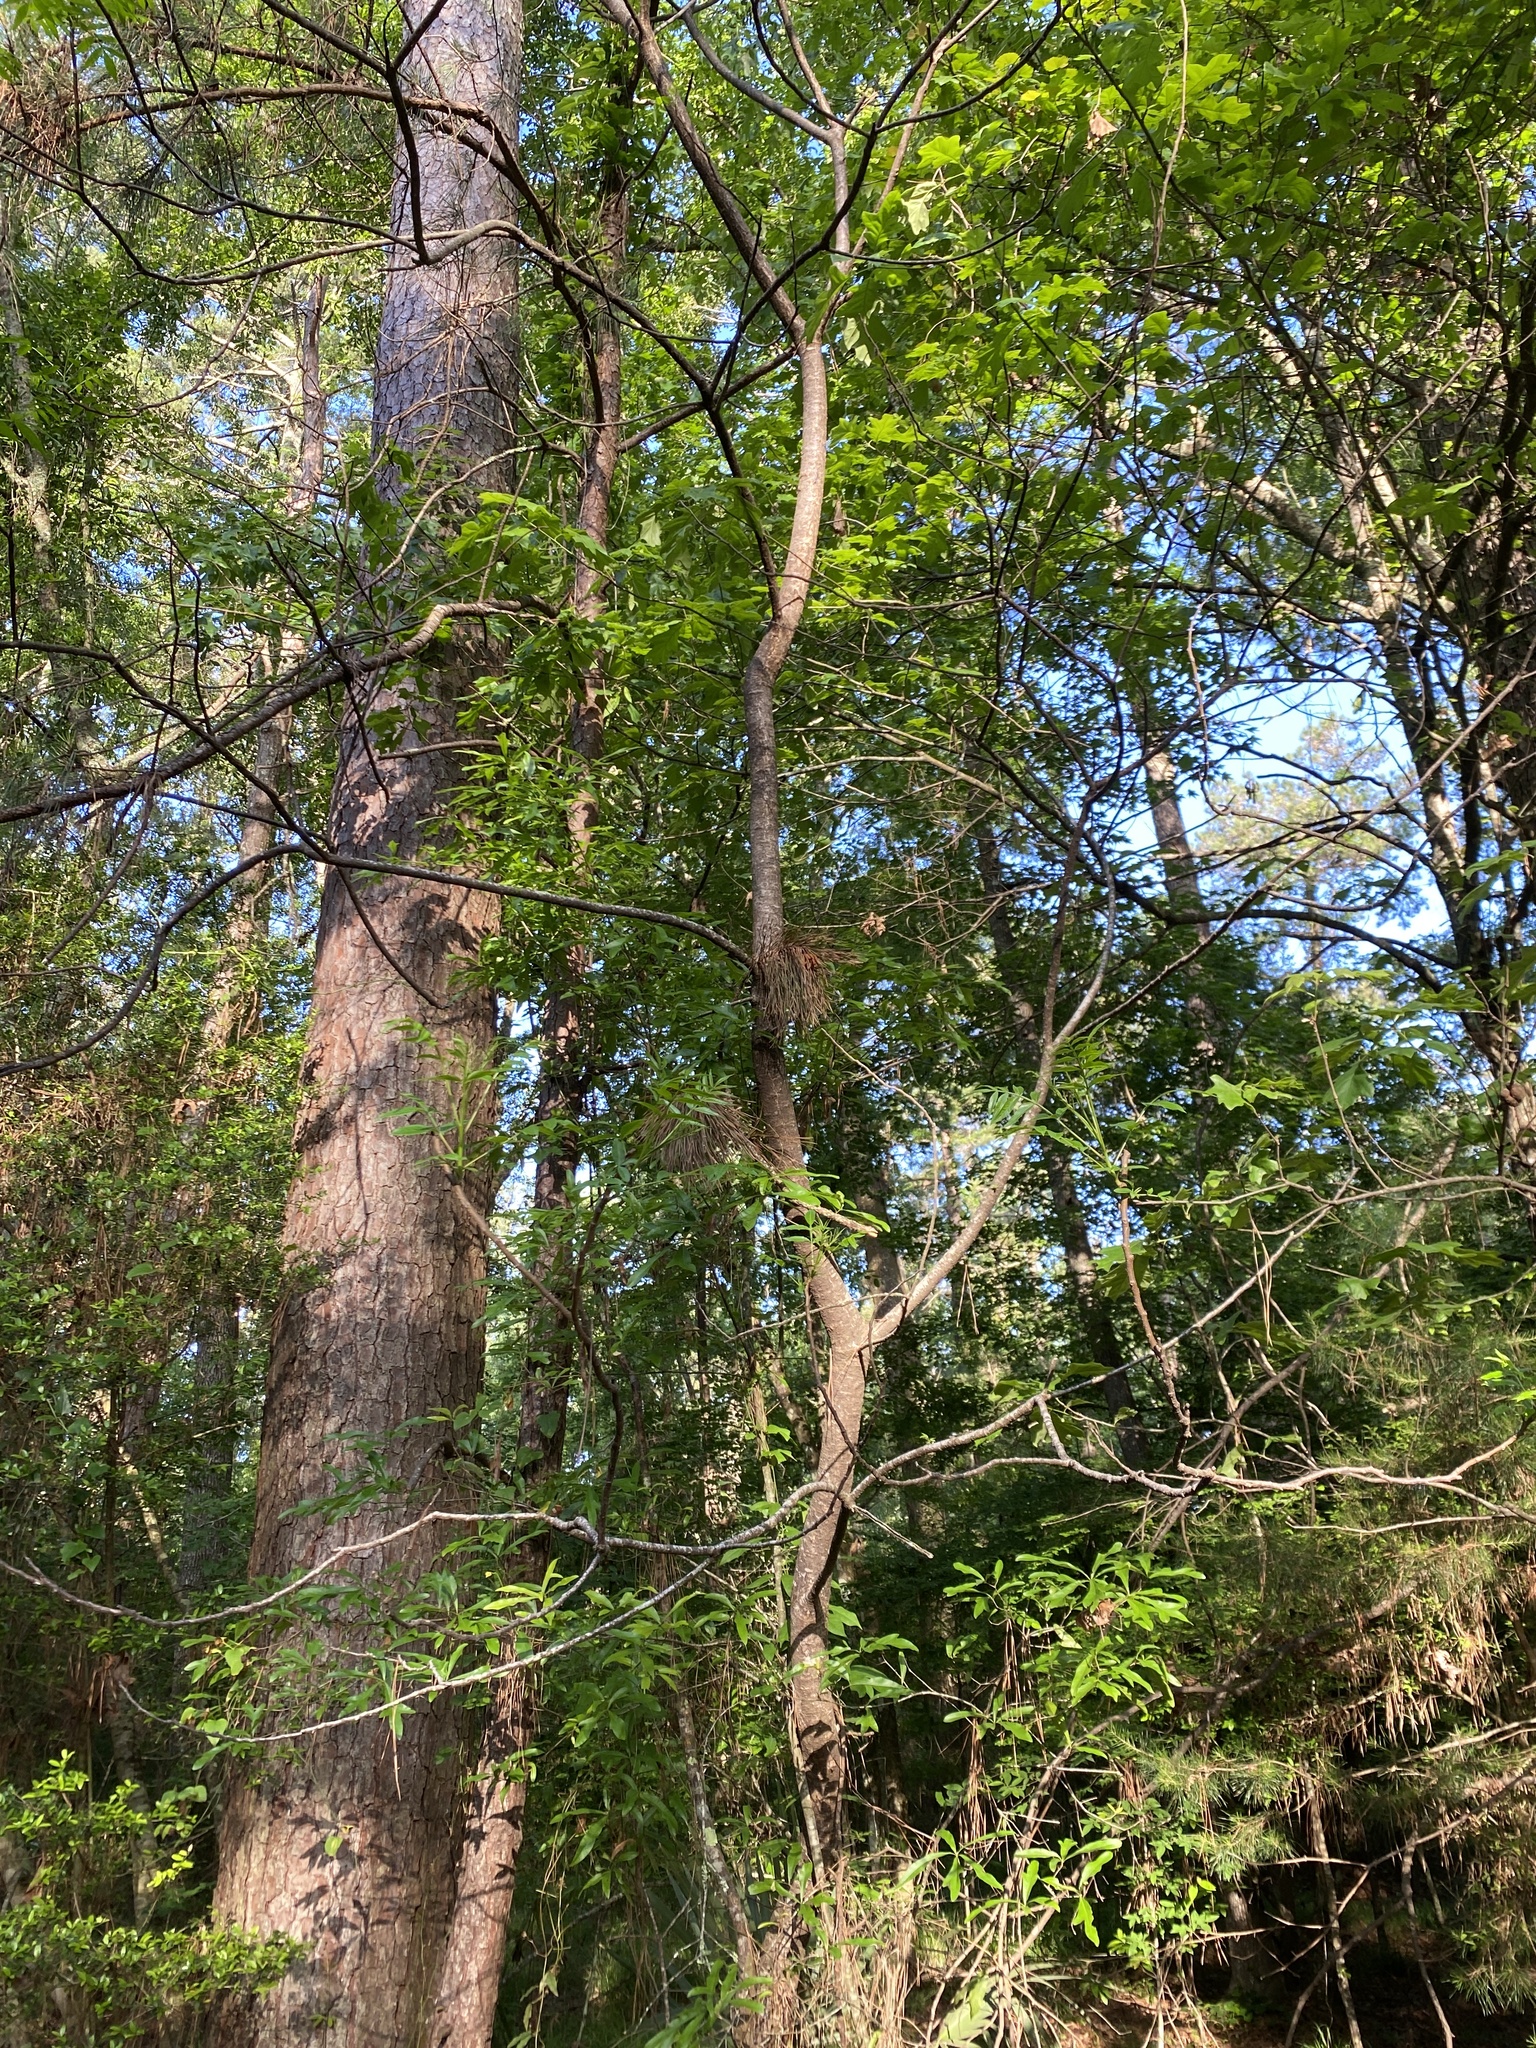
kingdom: Plantae
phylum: Tracheophyta
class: Magnoliopsida
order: Sapindales
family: Anacardiaceae
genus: Rhus
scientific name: Rhus copallina
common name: Shining sumac
